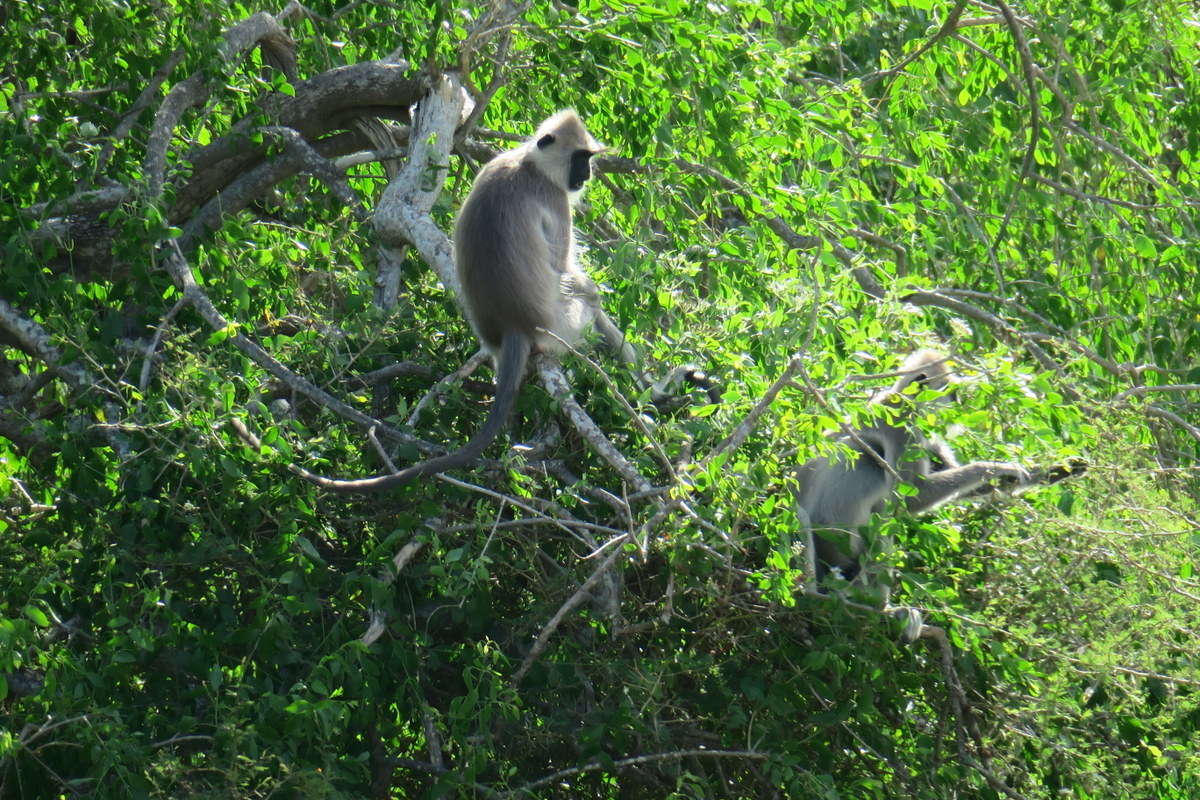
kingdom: Animalia
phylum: Chordata
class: Mammalia
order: Primates
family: Cercopithecidae
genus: Semnopithecus
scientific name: Semnopithecus priam
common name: Tufted gray langur
